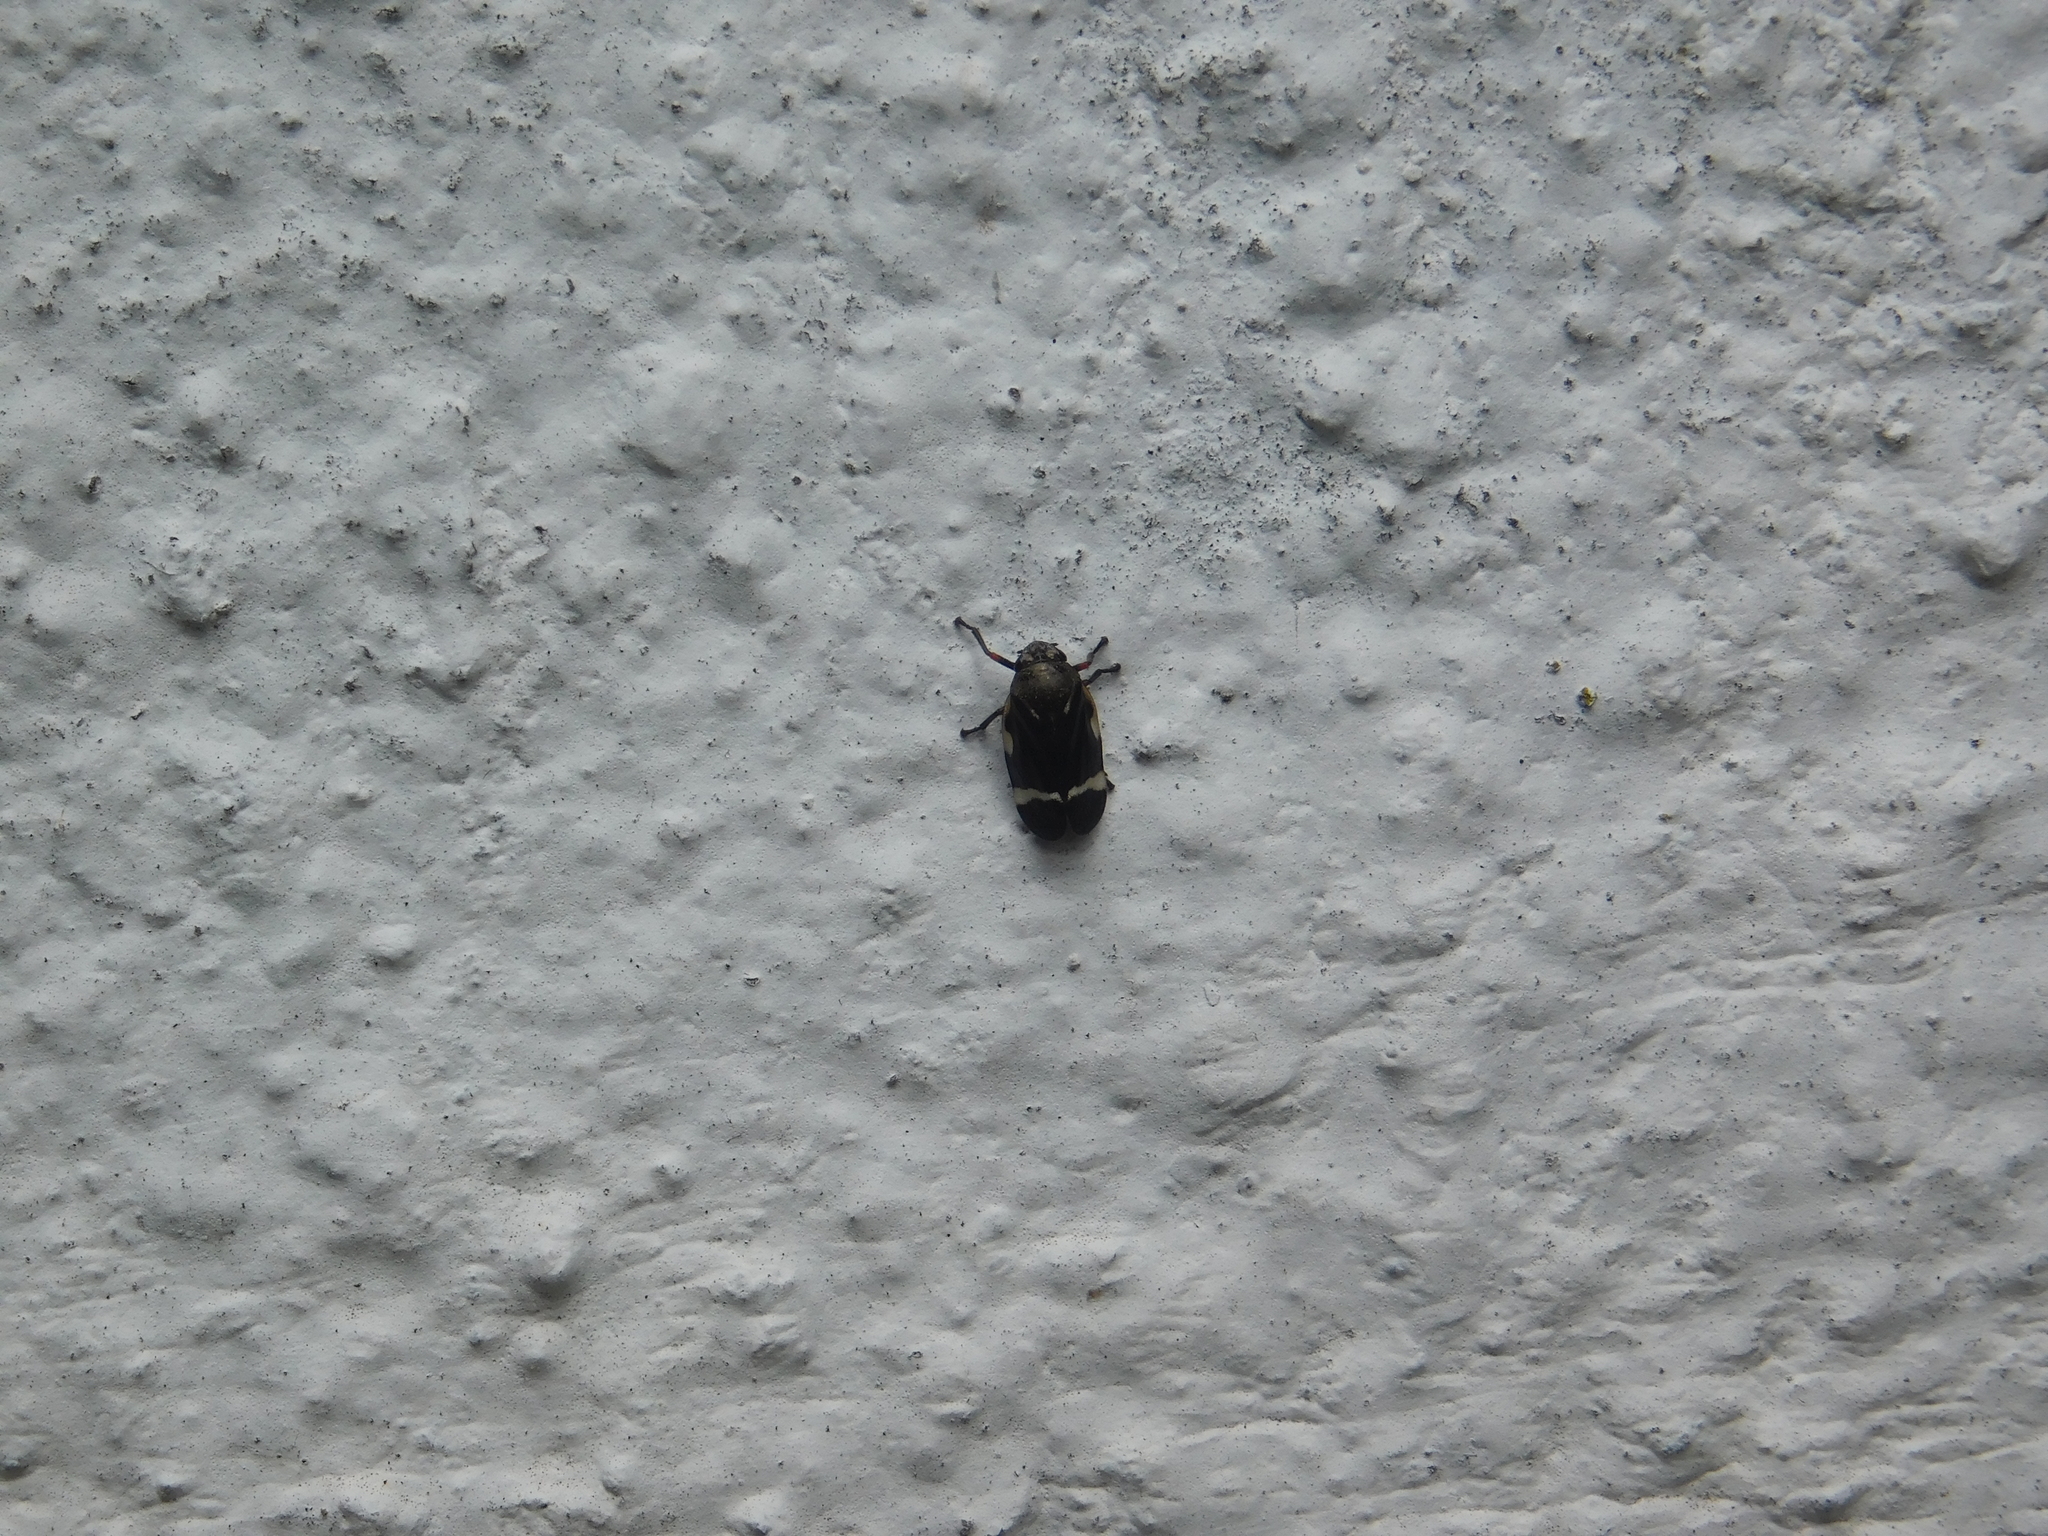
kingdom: Animalia
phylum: Arthropoda
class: Insecta
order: Hemiptera
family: Cercopidae
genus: Notozulia
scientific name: Notozulia entreriana
